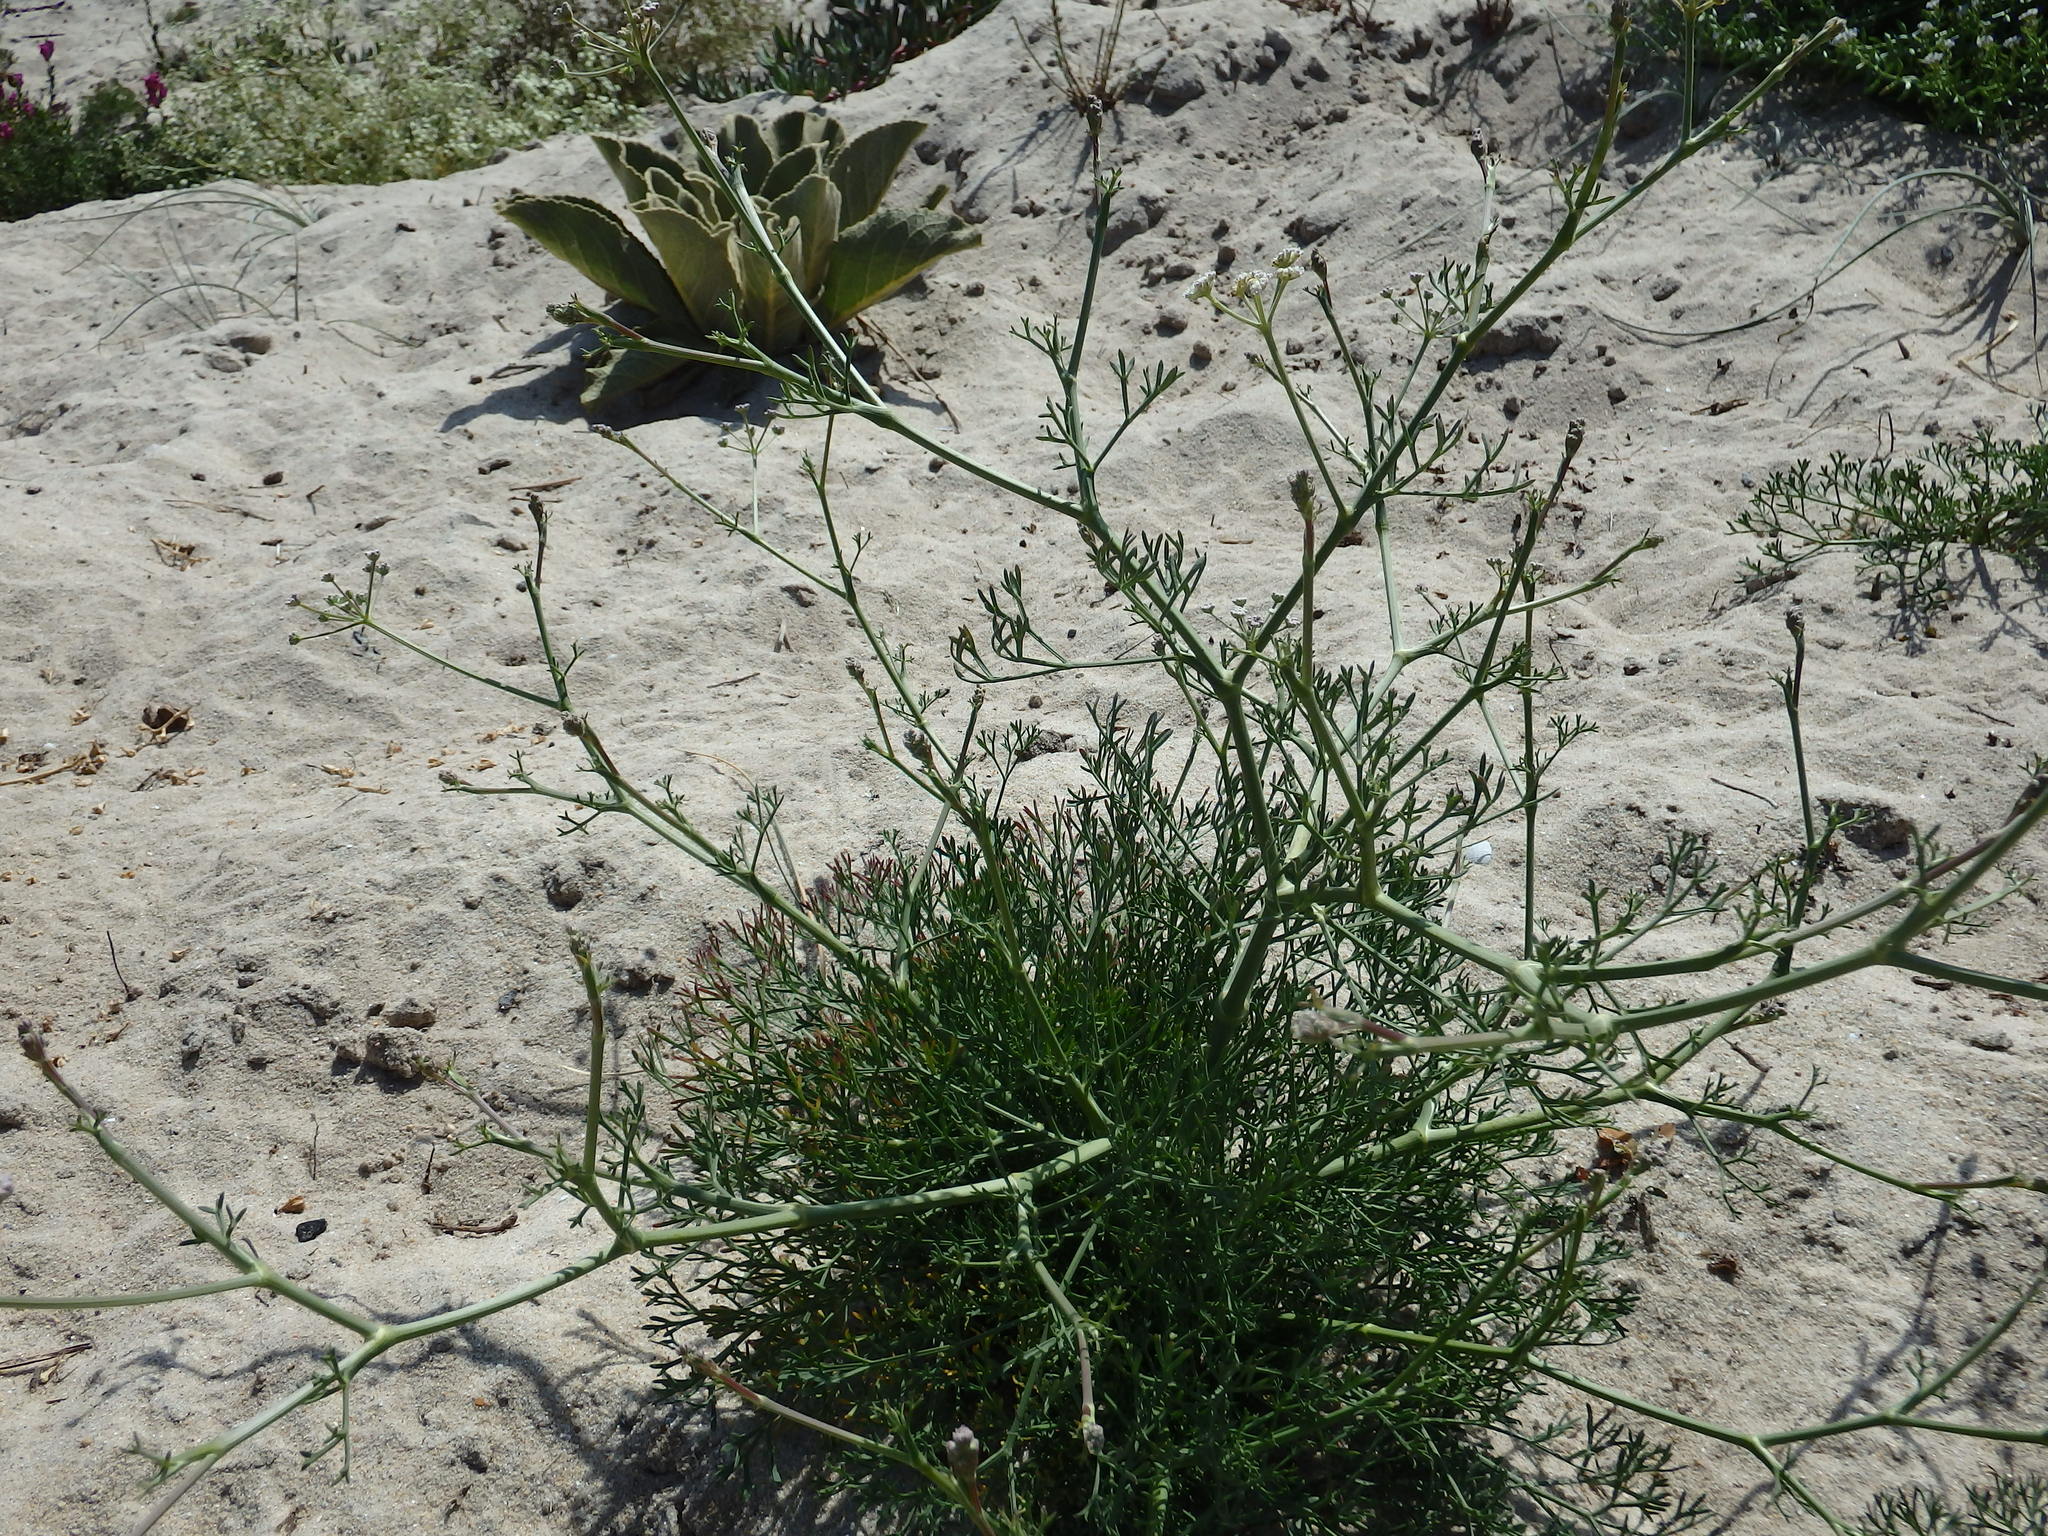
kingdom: Plantae
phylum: Tracheophyta
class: Magnoliopsida
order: Apiales
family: Apiaceae
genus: Seseli
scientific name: Seseli tortuosum
